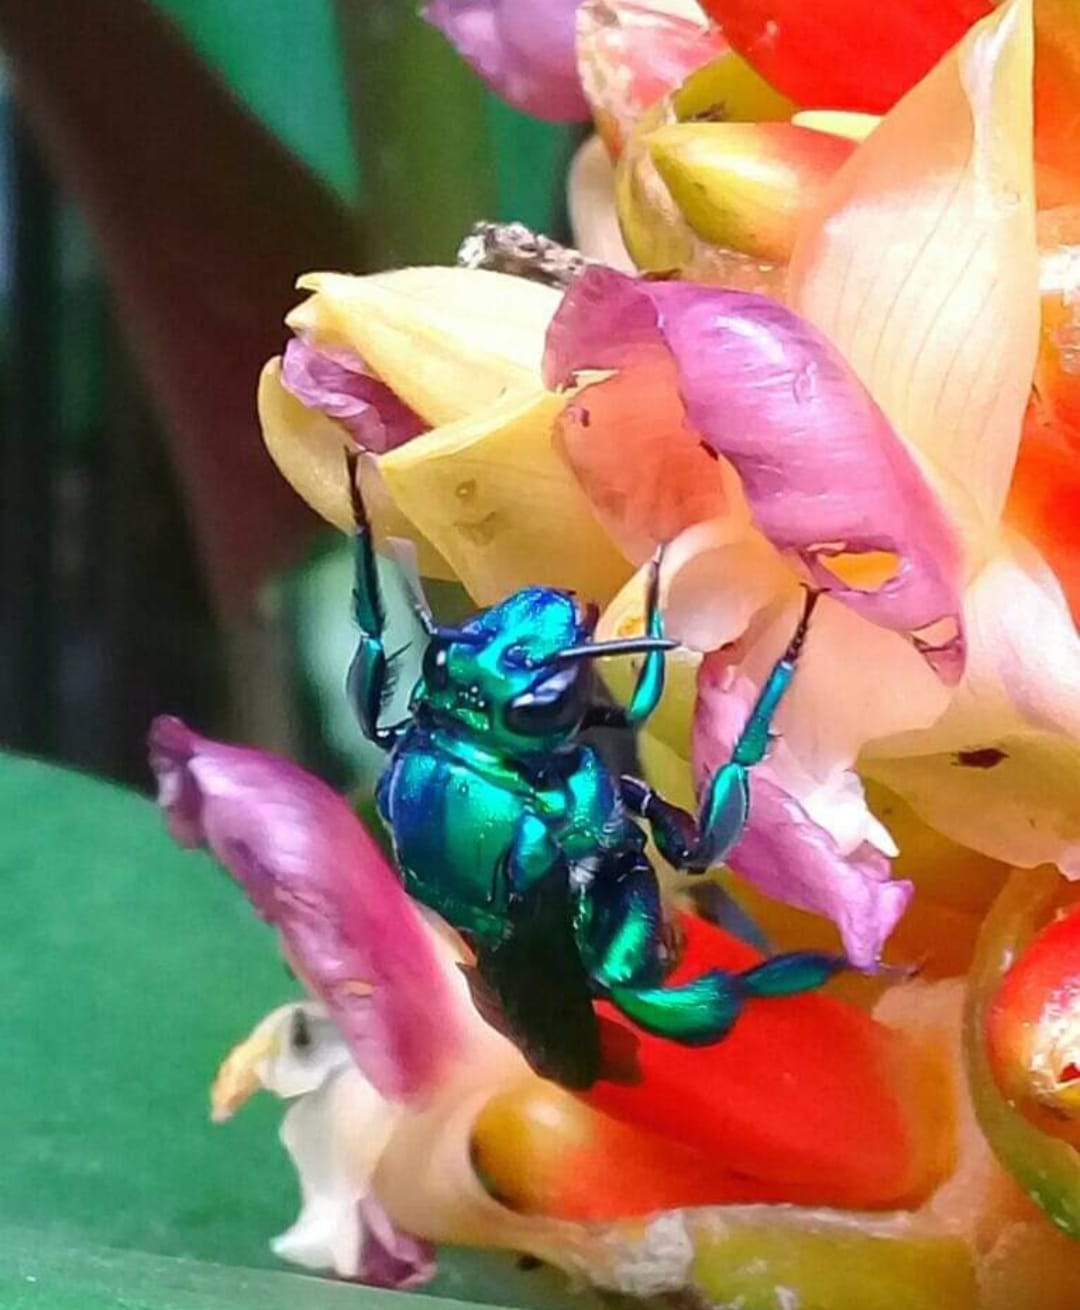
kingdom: Animalia
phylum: Arthropoda
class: Insecta
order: Hymenoptera
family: Apidae
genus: Exaerete
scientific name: Exaerete smaragdina
